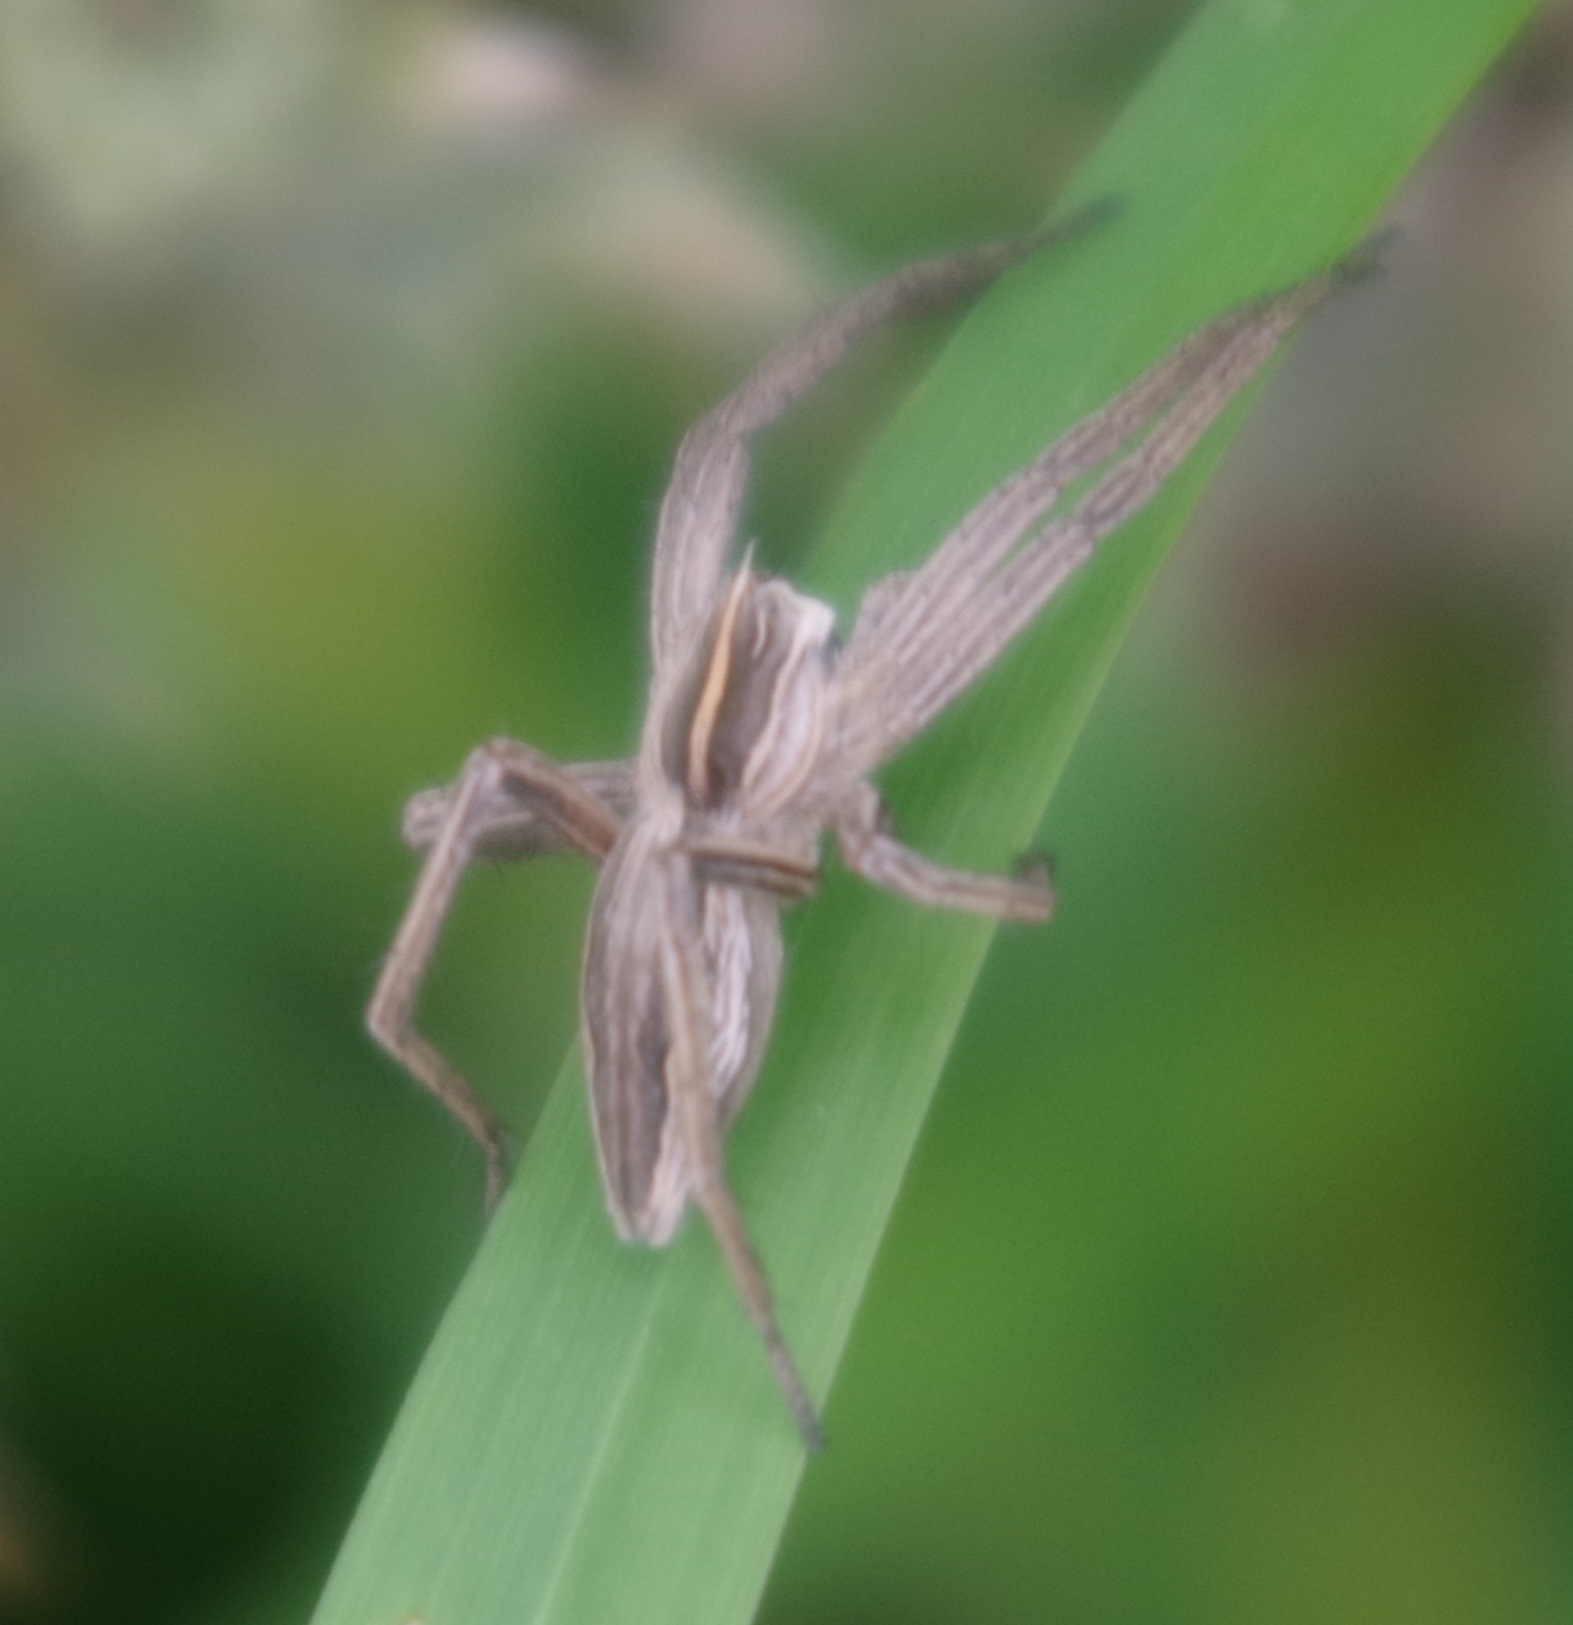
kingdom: Animalia
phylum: Arthropoda
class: Arachnida
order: Araneae
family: Pisauridae
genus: Pisaura
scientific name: Pisaura mirabilis
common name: Tent spider
